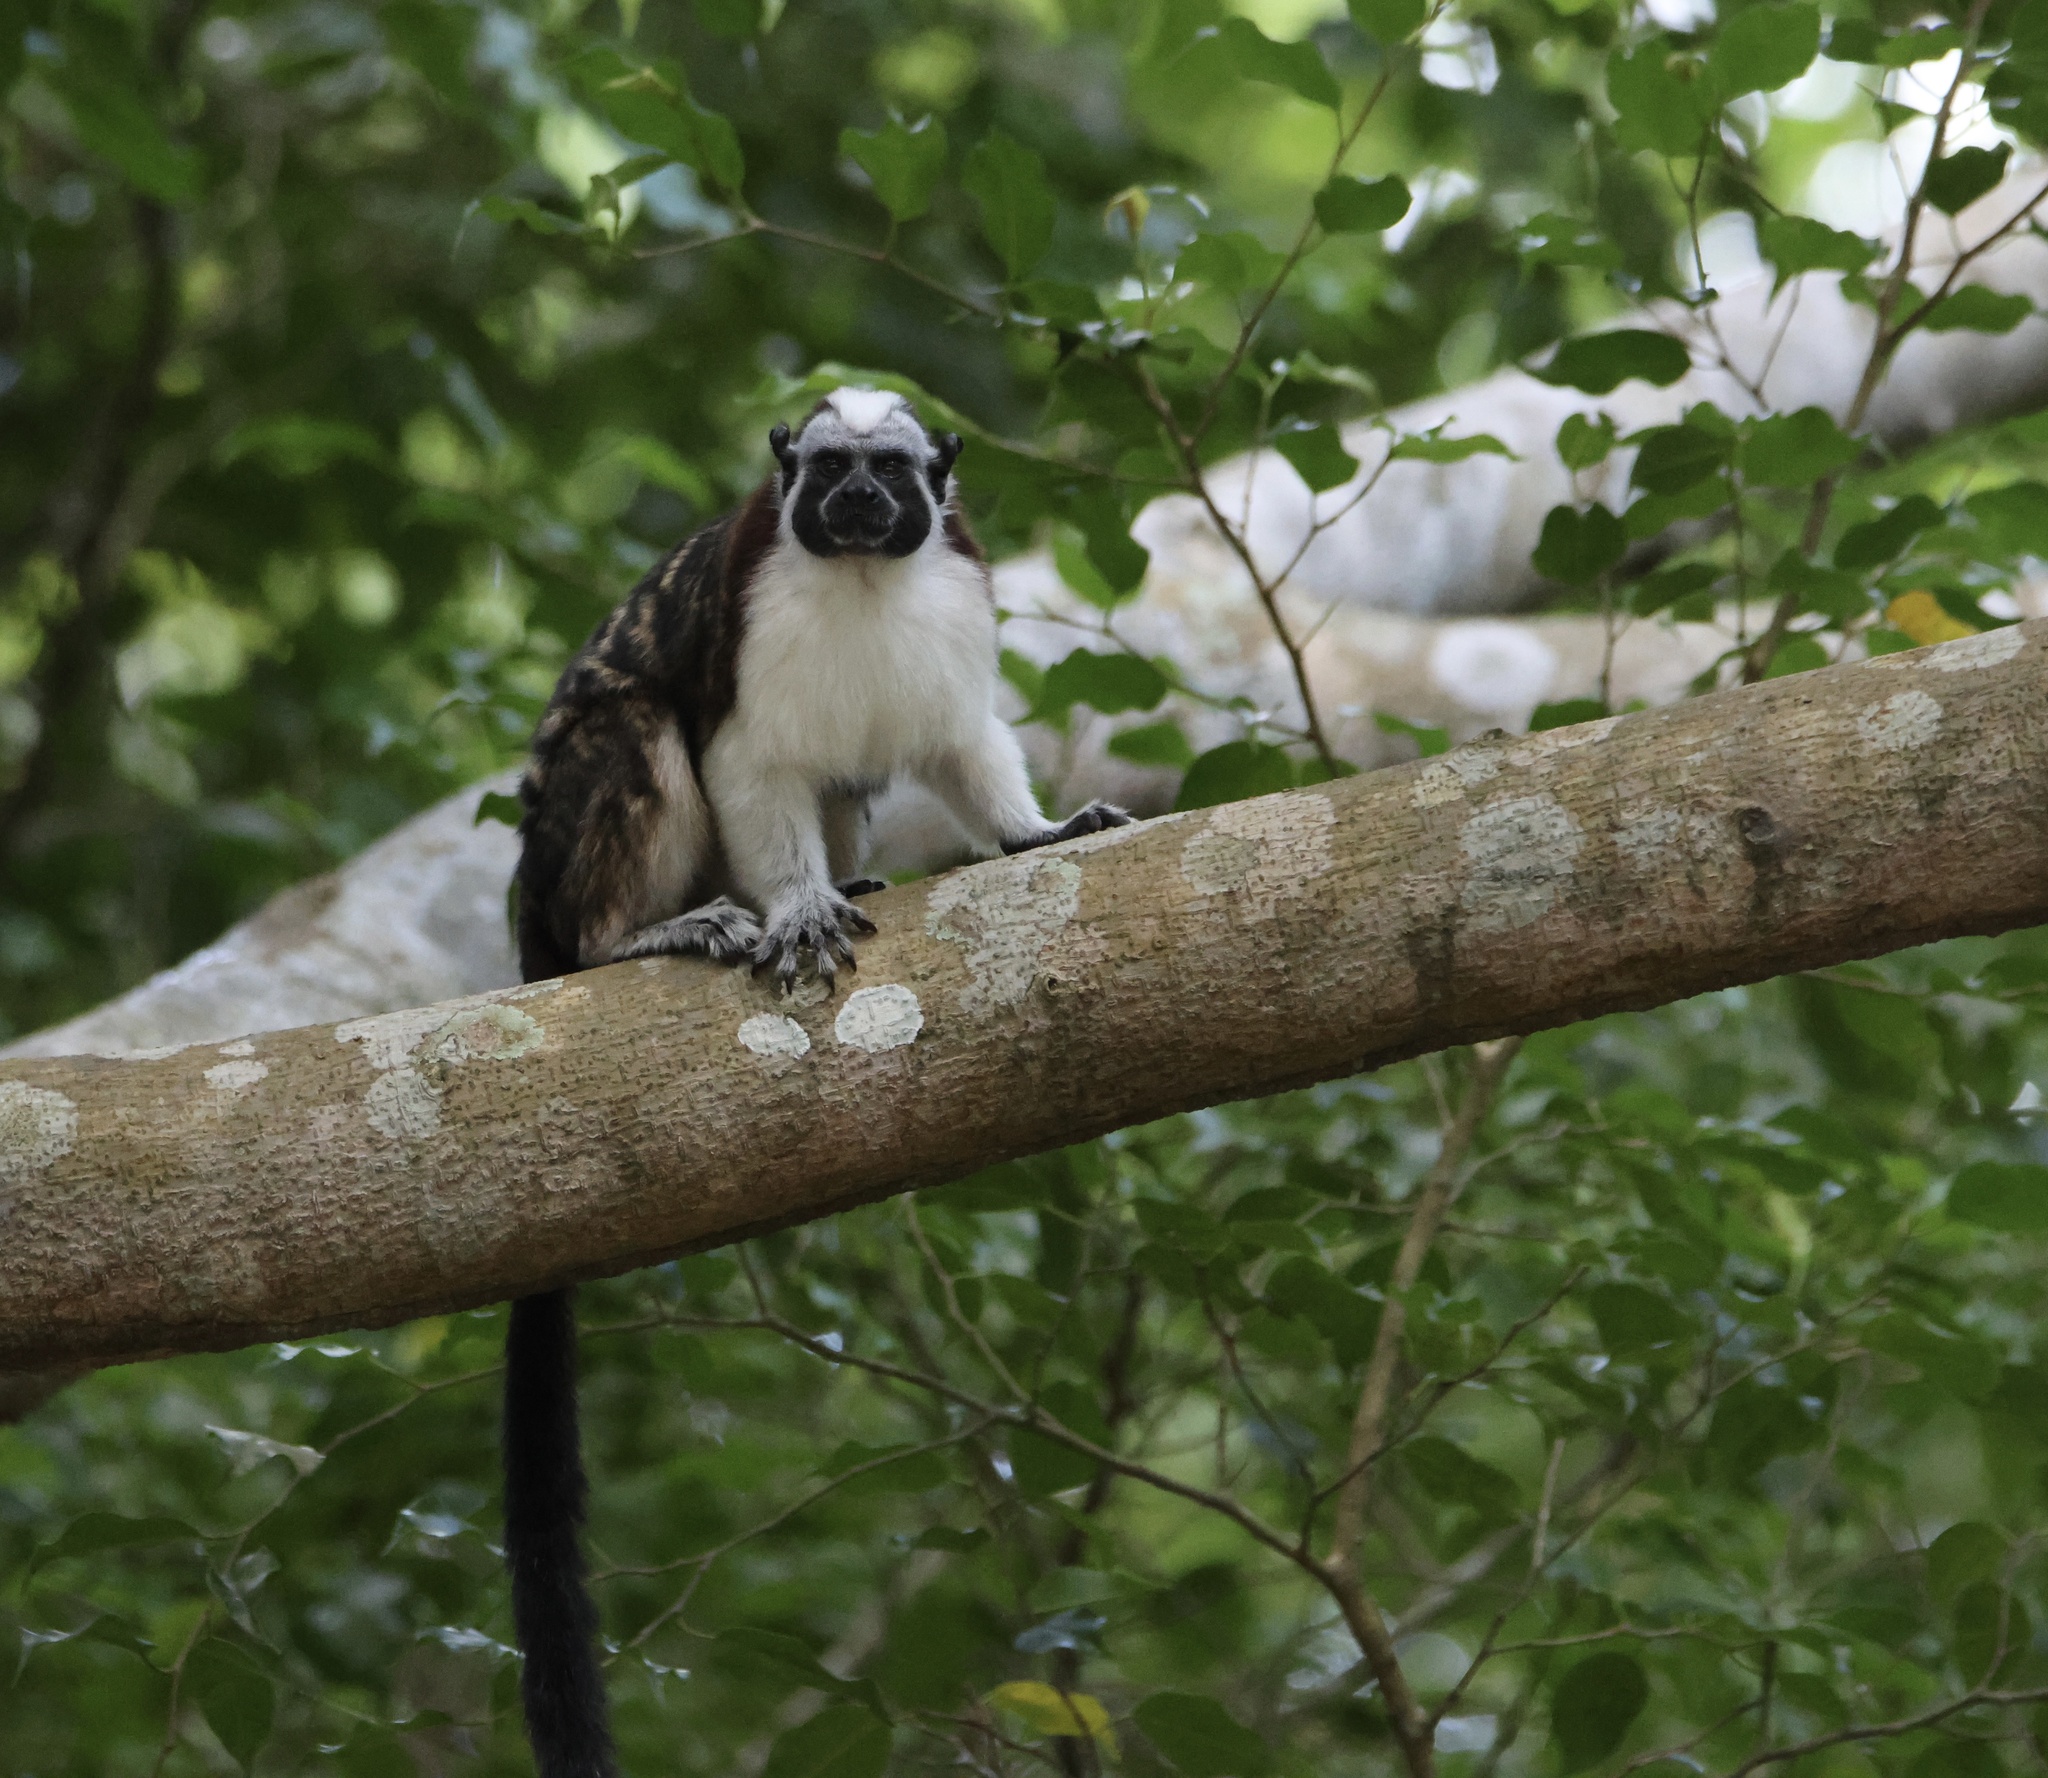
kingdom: Animalia
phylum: Chordata
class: Mammalia
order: Primates
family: Callitrichidae
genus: Saguinus
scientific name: Saguinus geoffroyi
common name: Geoffroy s tamarin
